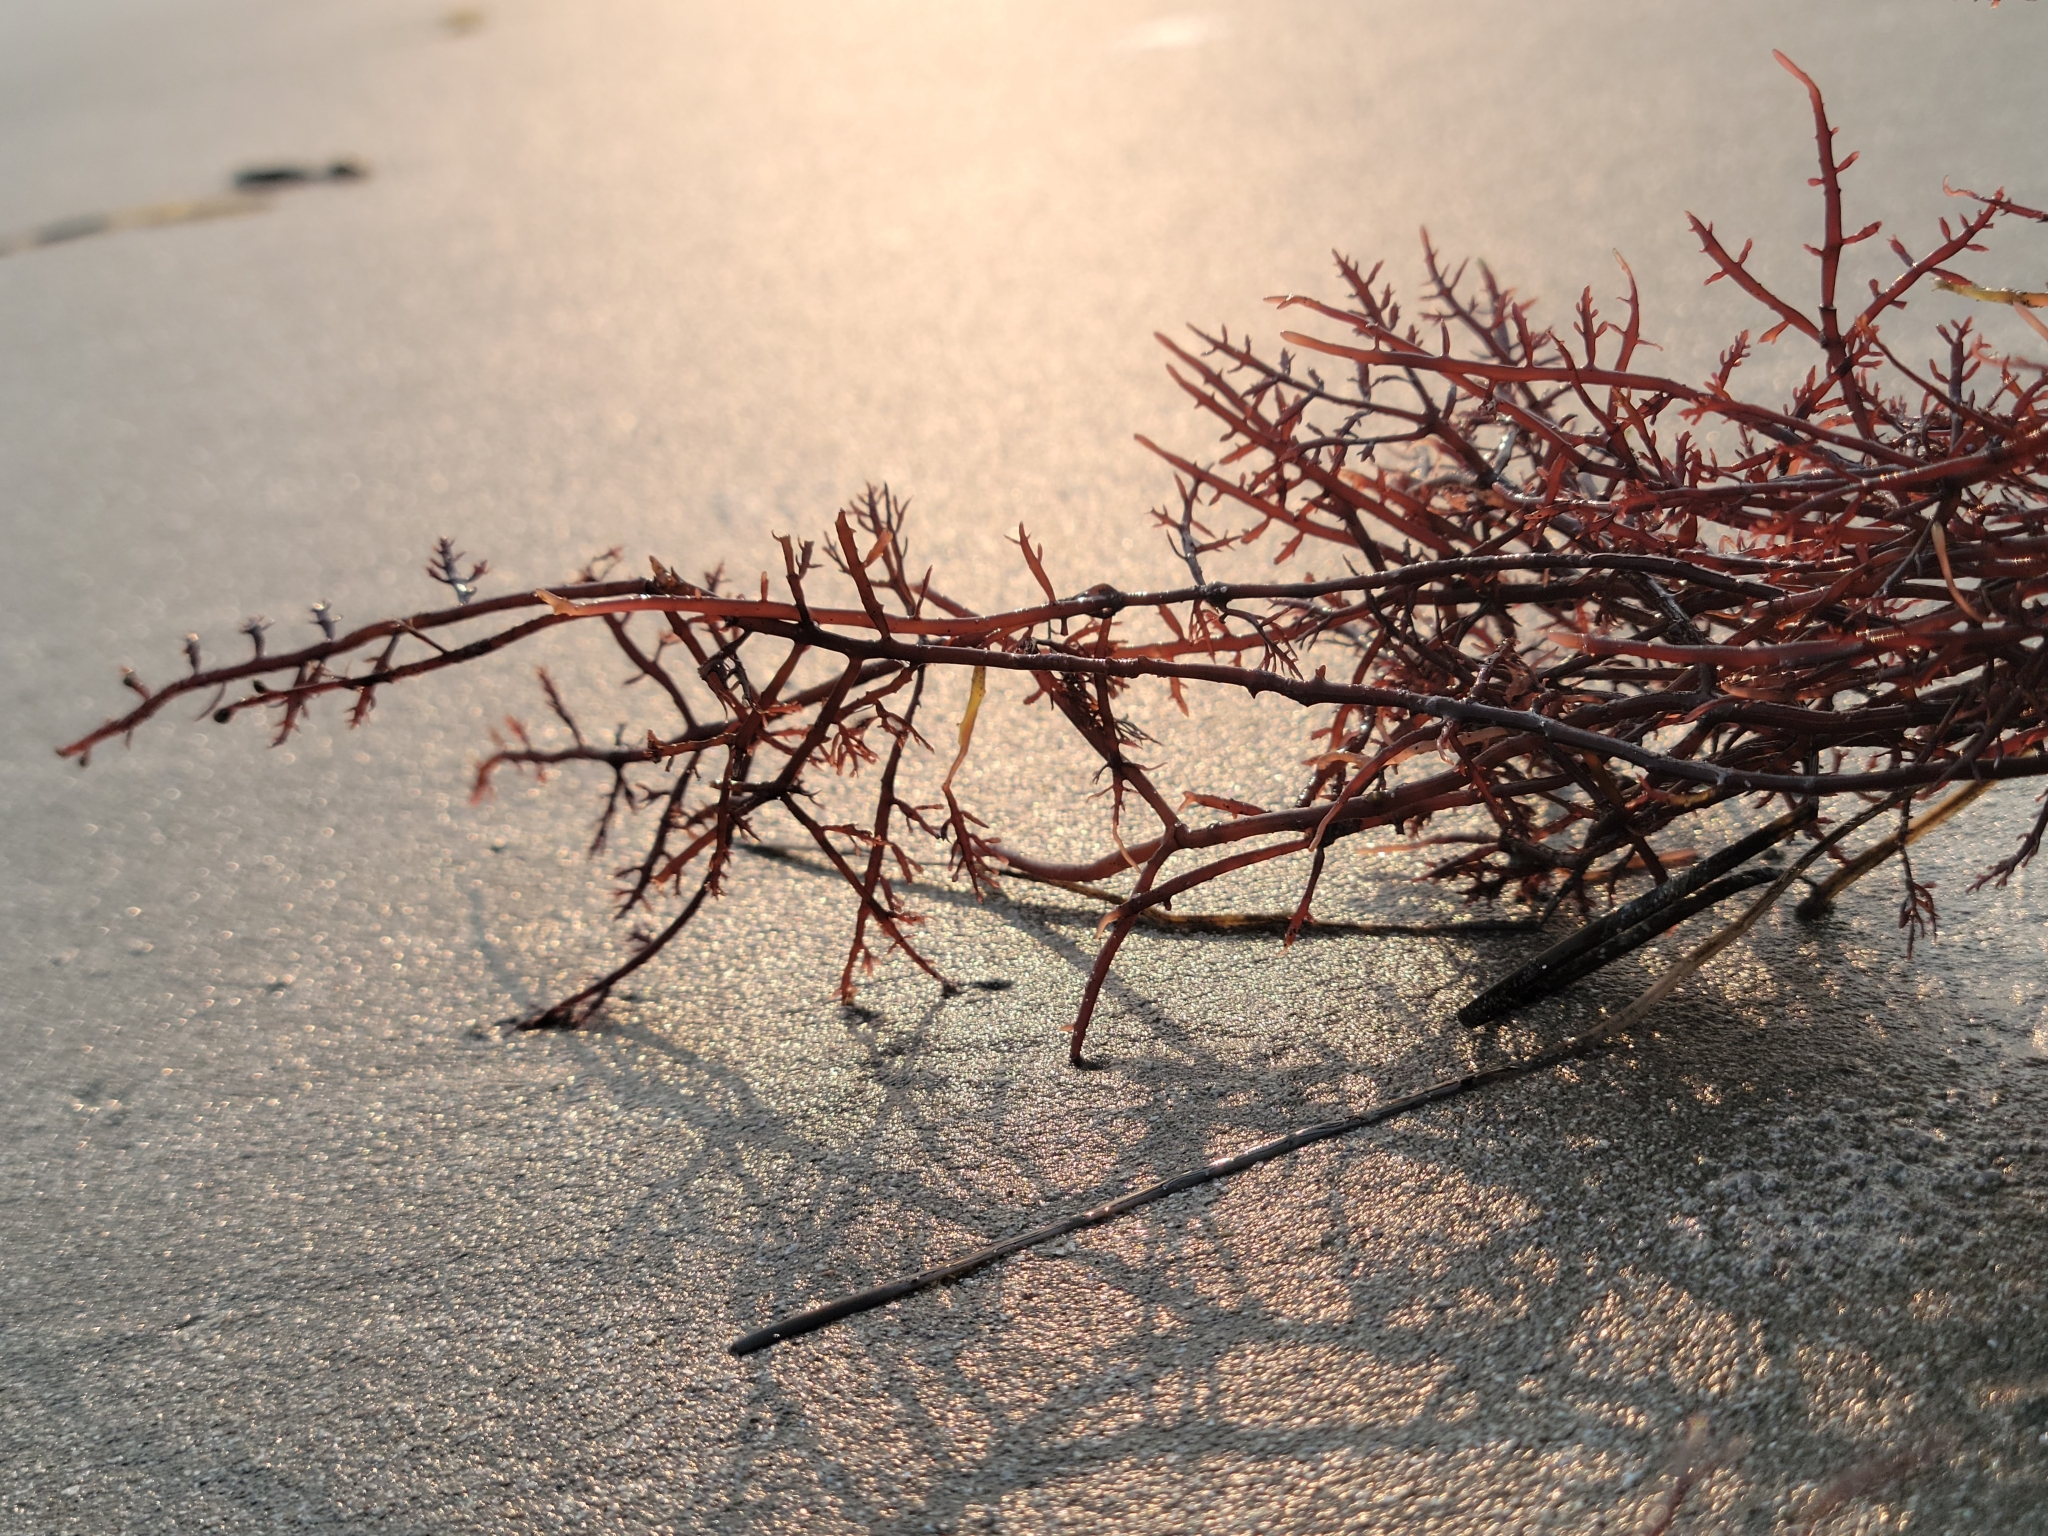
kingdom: Plantae
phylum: Rhodophyta
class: Florideophyceae
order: Gelidiales
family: Gelidiaceae
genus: Gelidium
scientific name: Gelidium robustum
